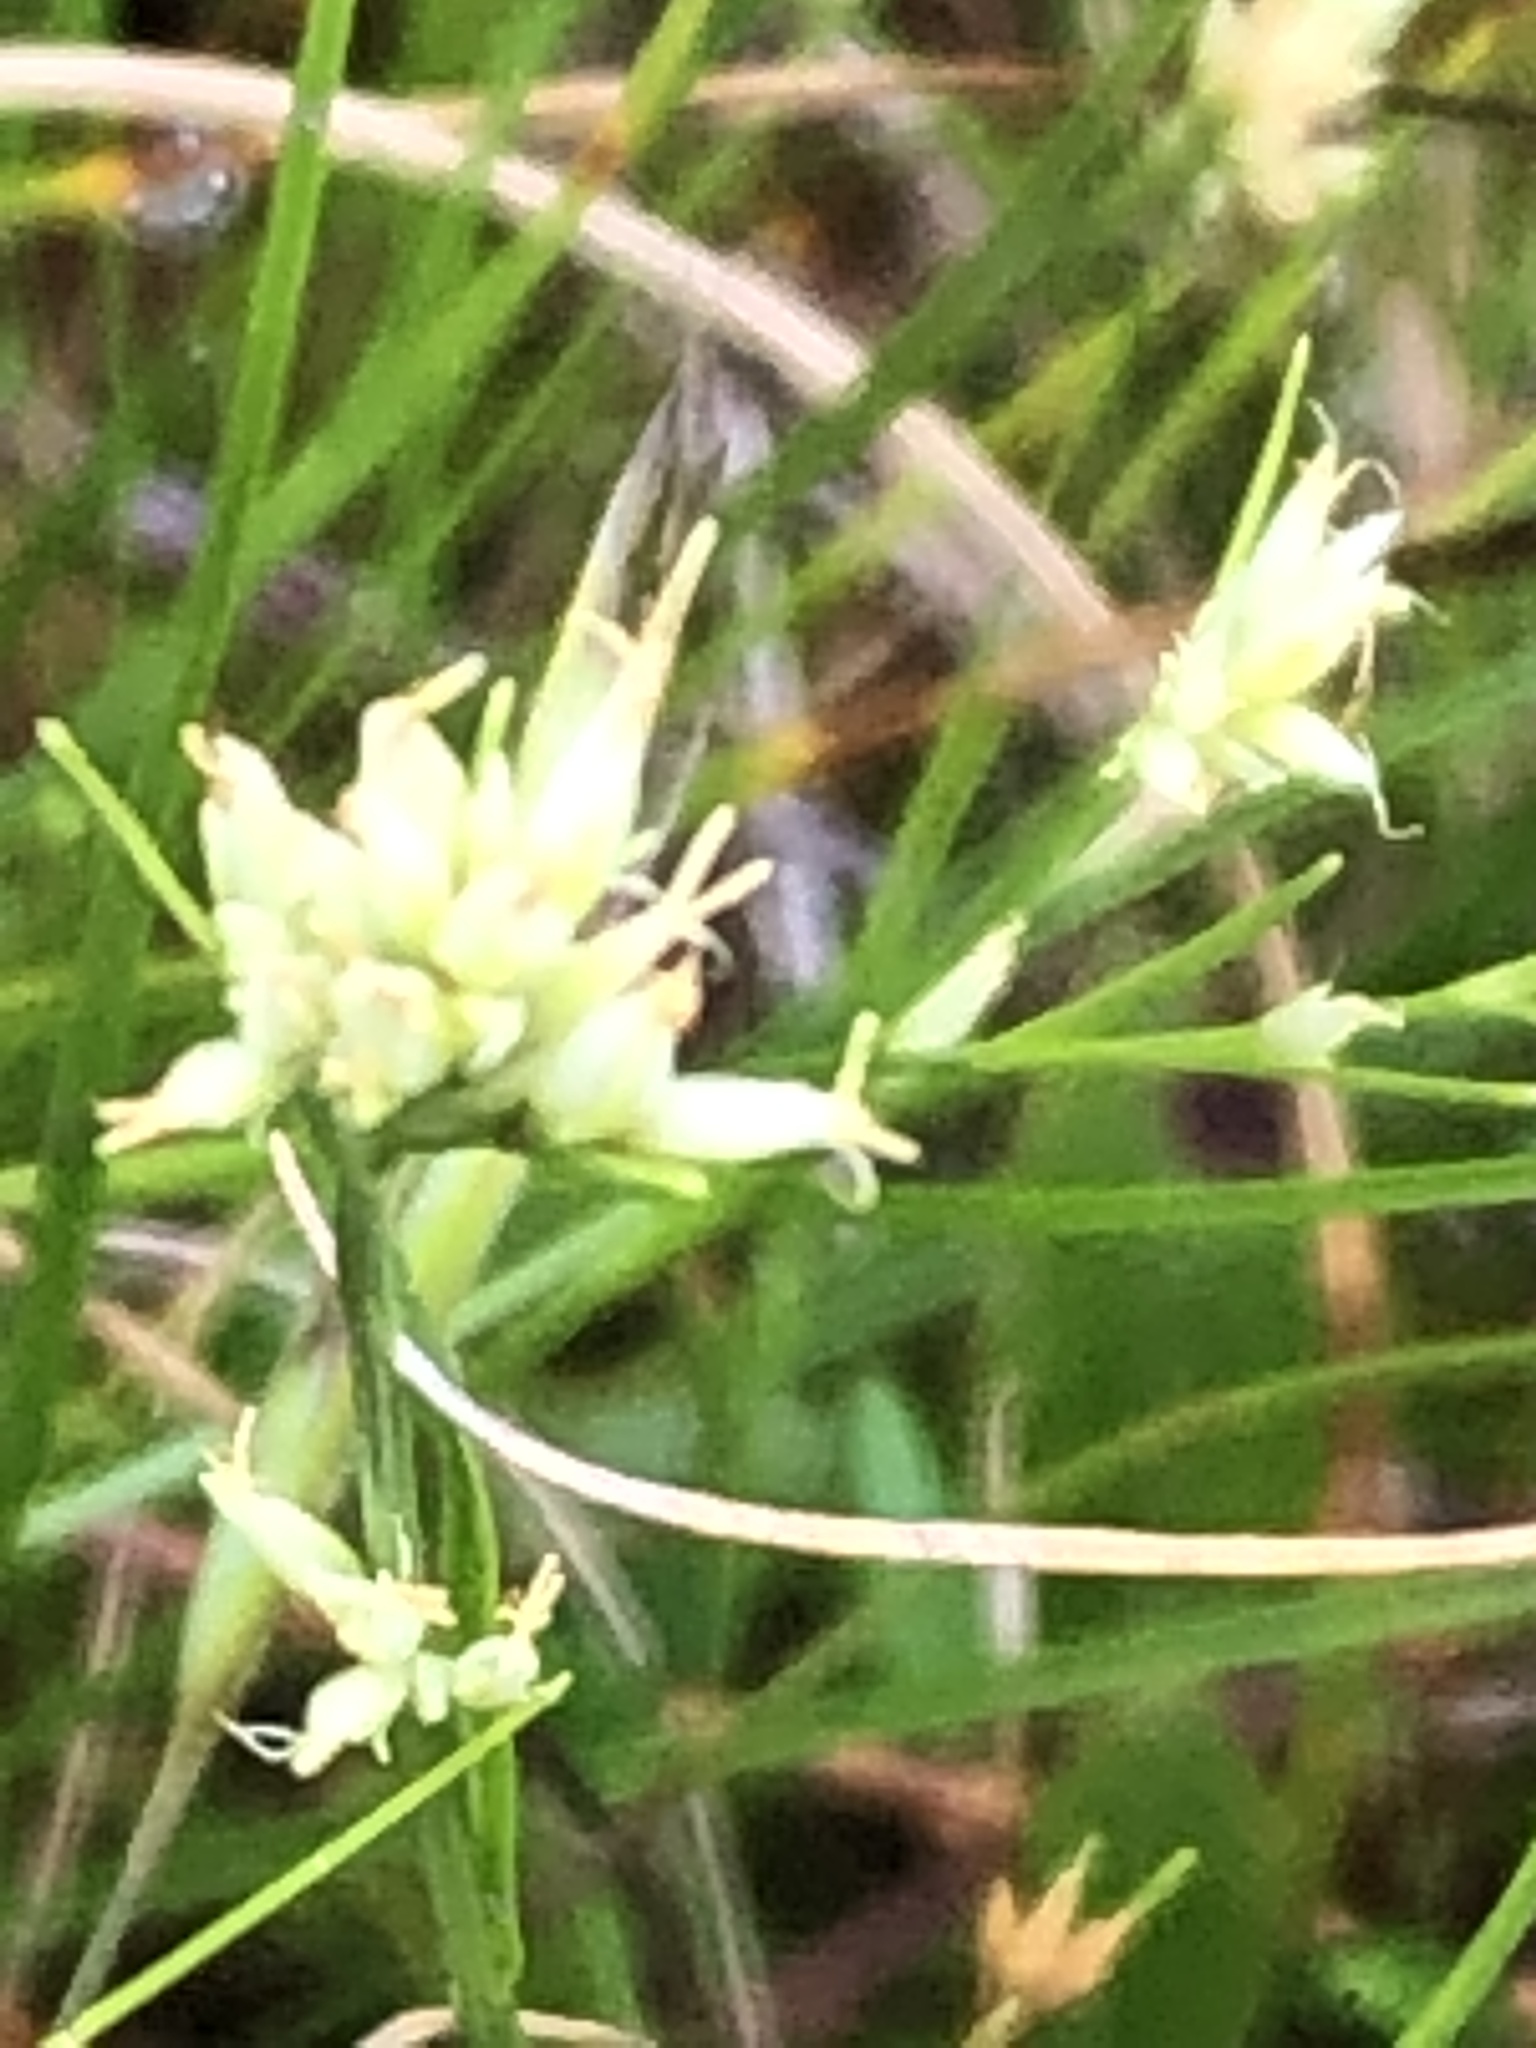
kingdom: Plantae
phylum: Tracheophyta
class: Liliopsida
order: Poales
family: Cyperaceae
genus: Rhynchospora
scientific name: Rhynchospora alba
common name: White beak-sedge
